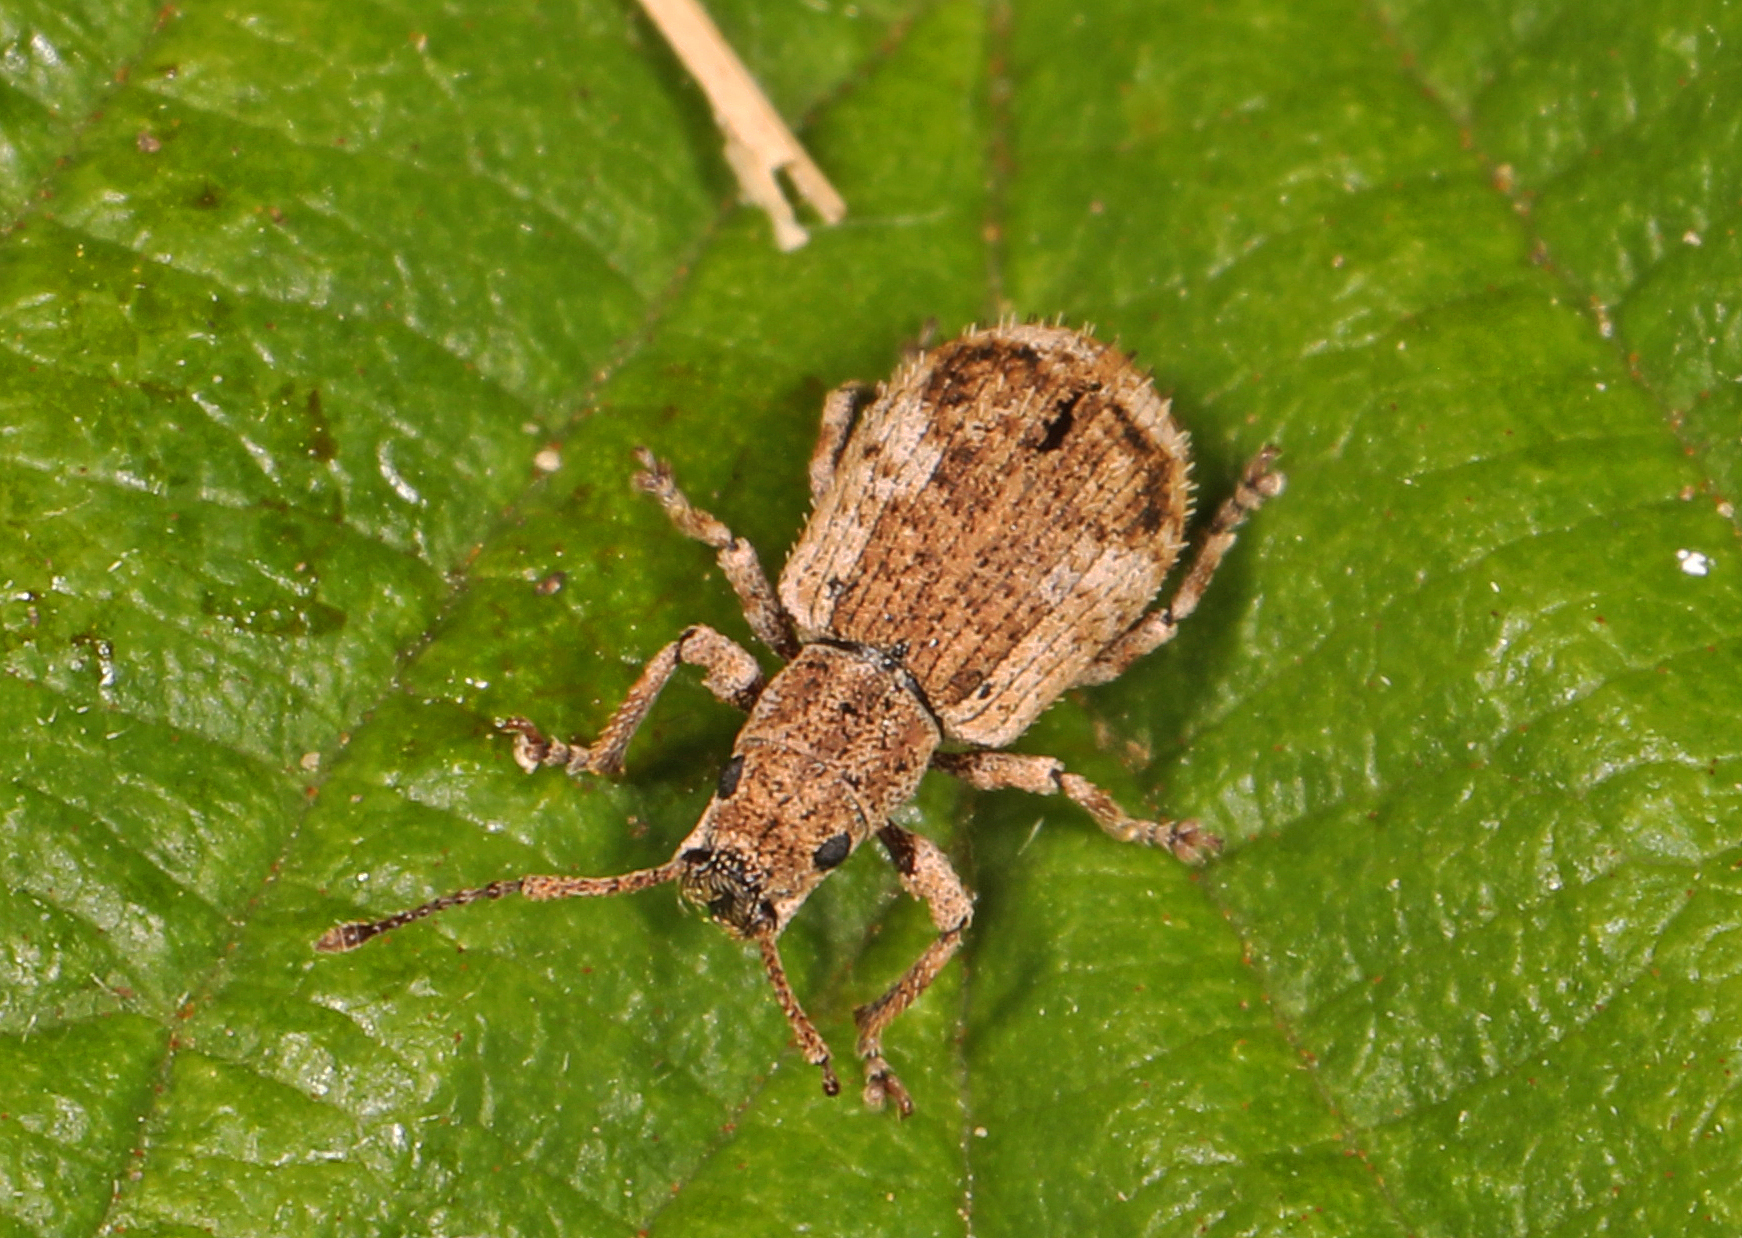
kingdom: Animalia
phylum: Arthropoda
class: Insecta
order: Coleoptera
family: Curculionidae
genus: Pseudoedophrys
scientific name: Pseudoedophrys hilleri
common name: Weevil
